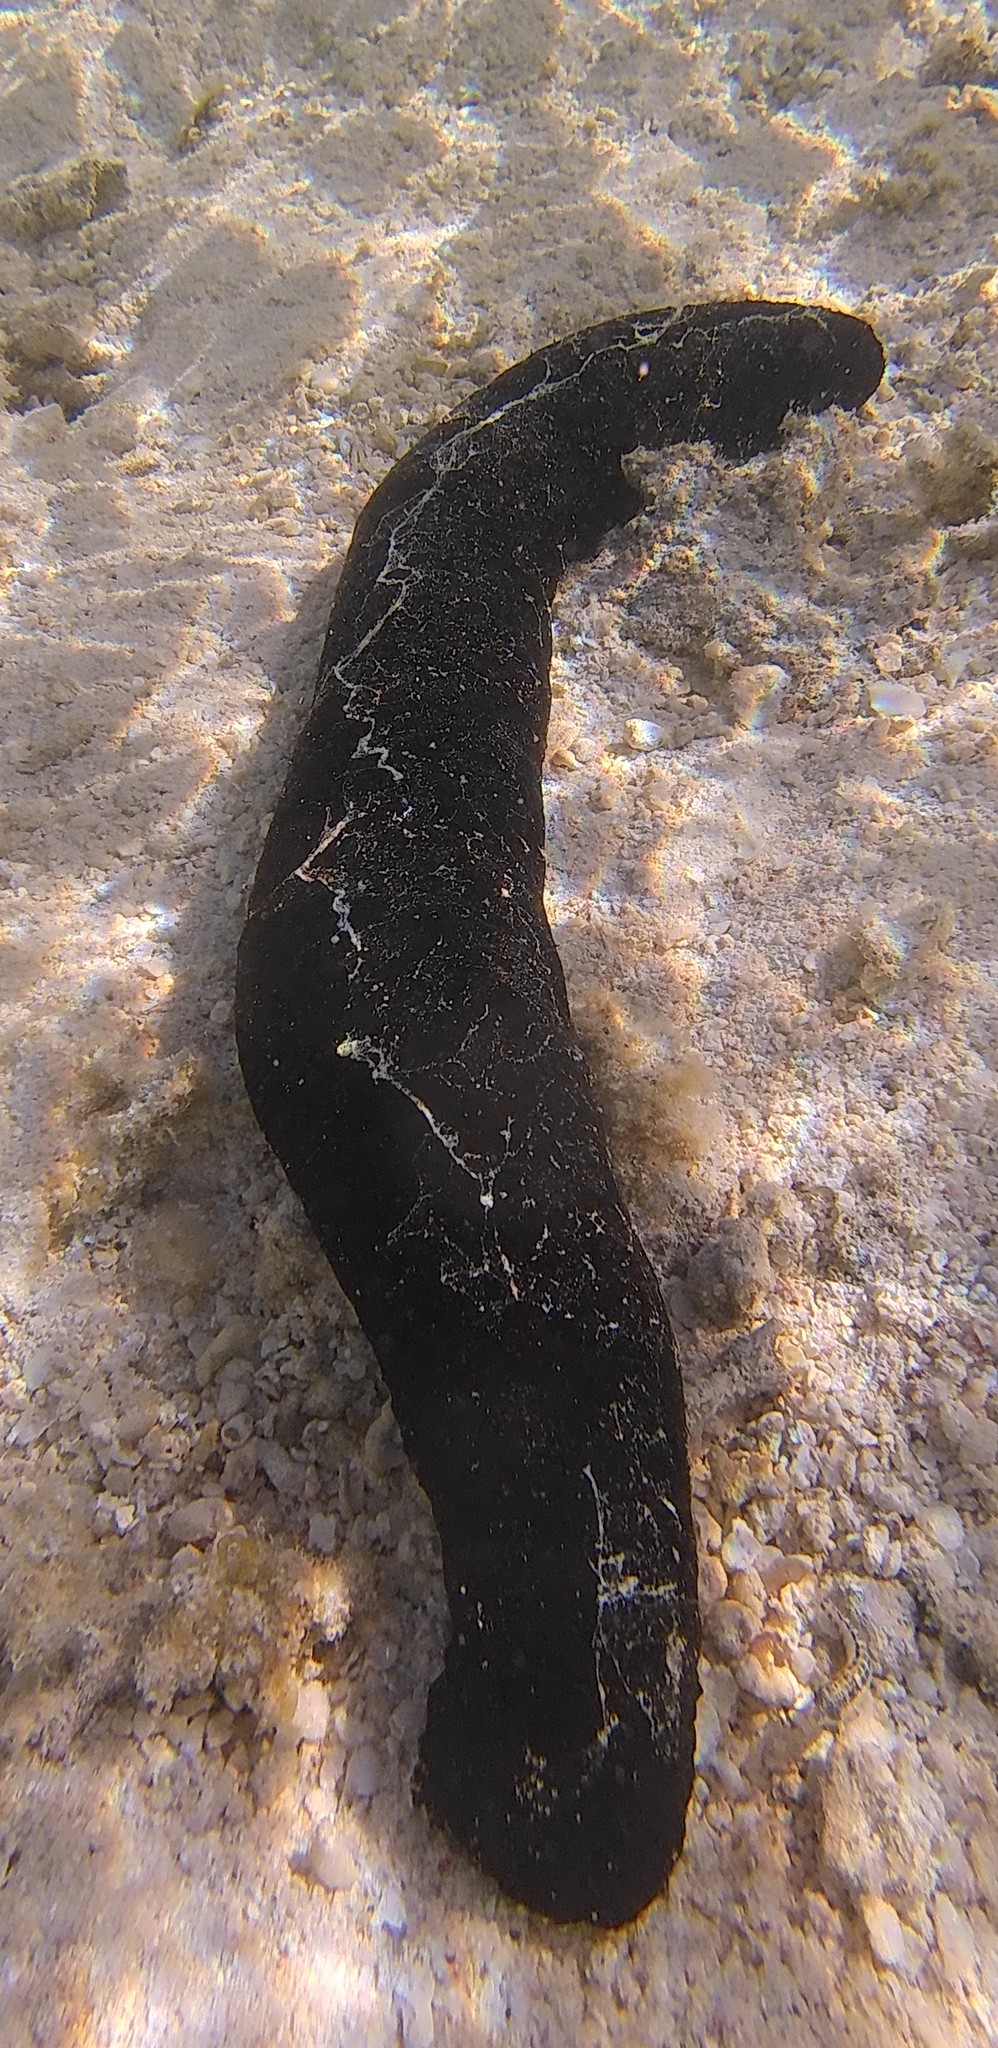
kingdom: Animalia
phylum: Echinodermata
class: Holothuroidea
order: Holothuriida
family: Holothuriidae
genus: Holothuria
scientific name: Holothuria atra
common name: Lollyfish
